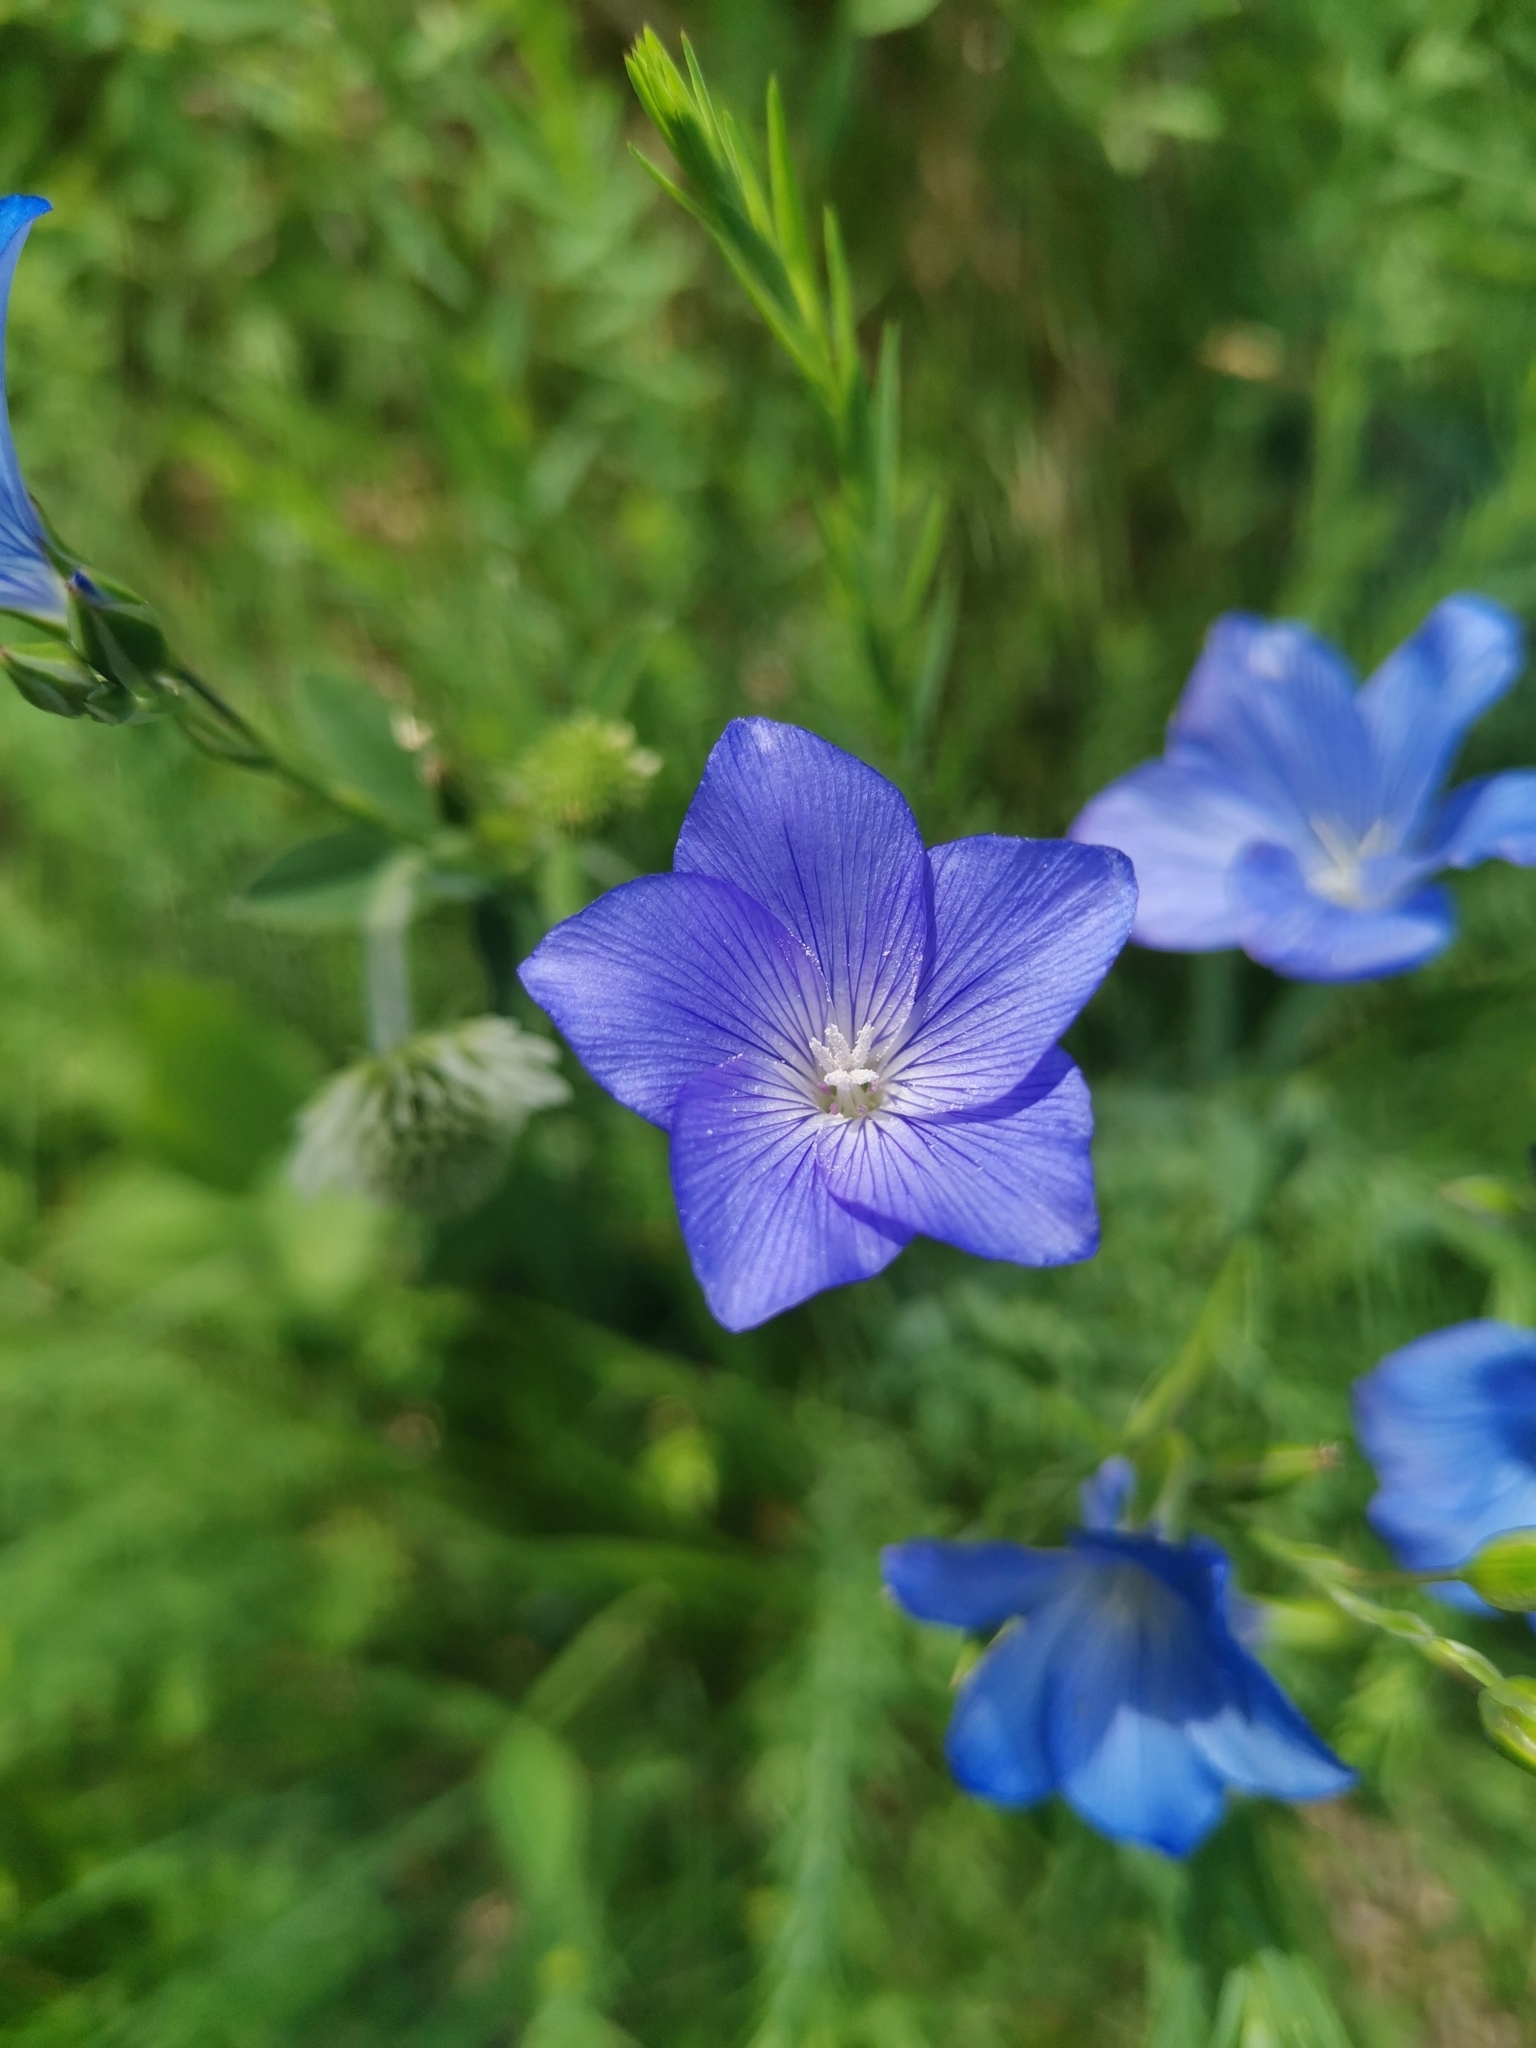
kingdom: Plantae
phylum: Tracheophyta
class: Magnoliopsida
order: Malpighiales
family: Linaceae
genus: Linum
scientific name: Linum narbonense
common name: Flax
